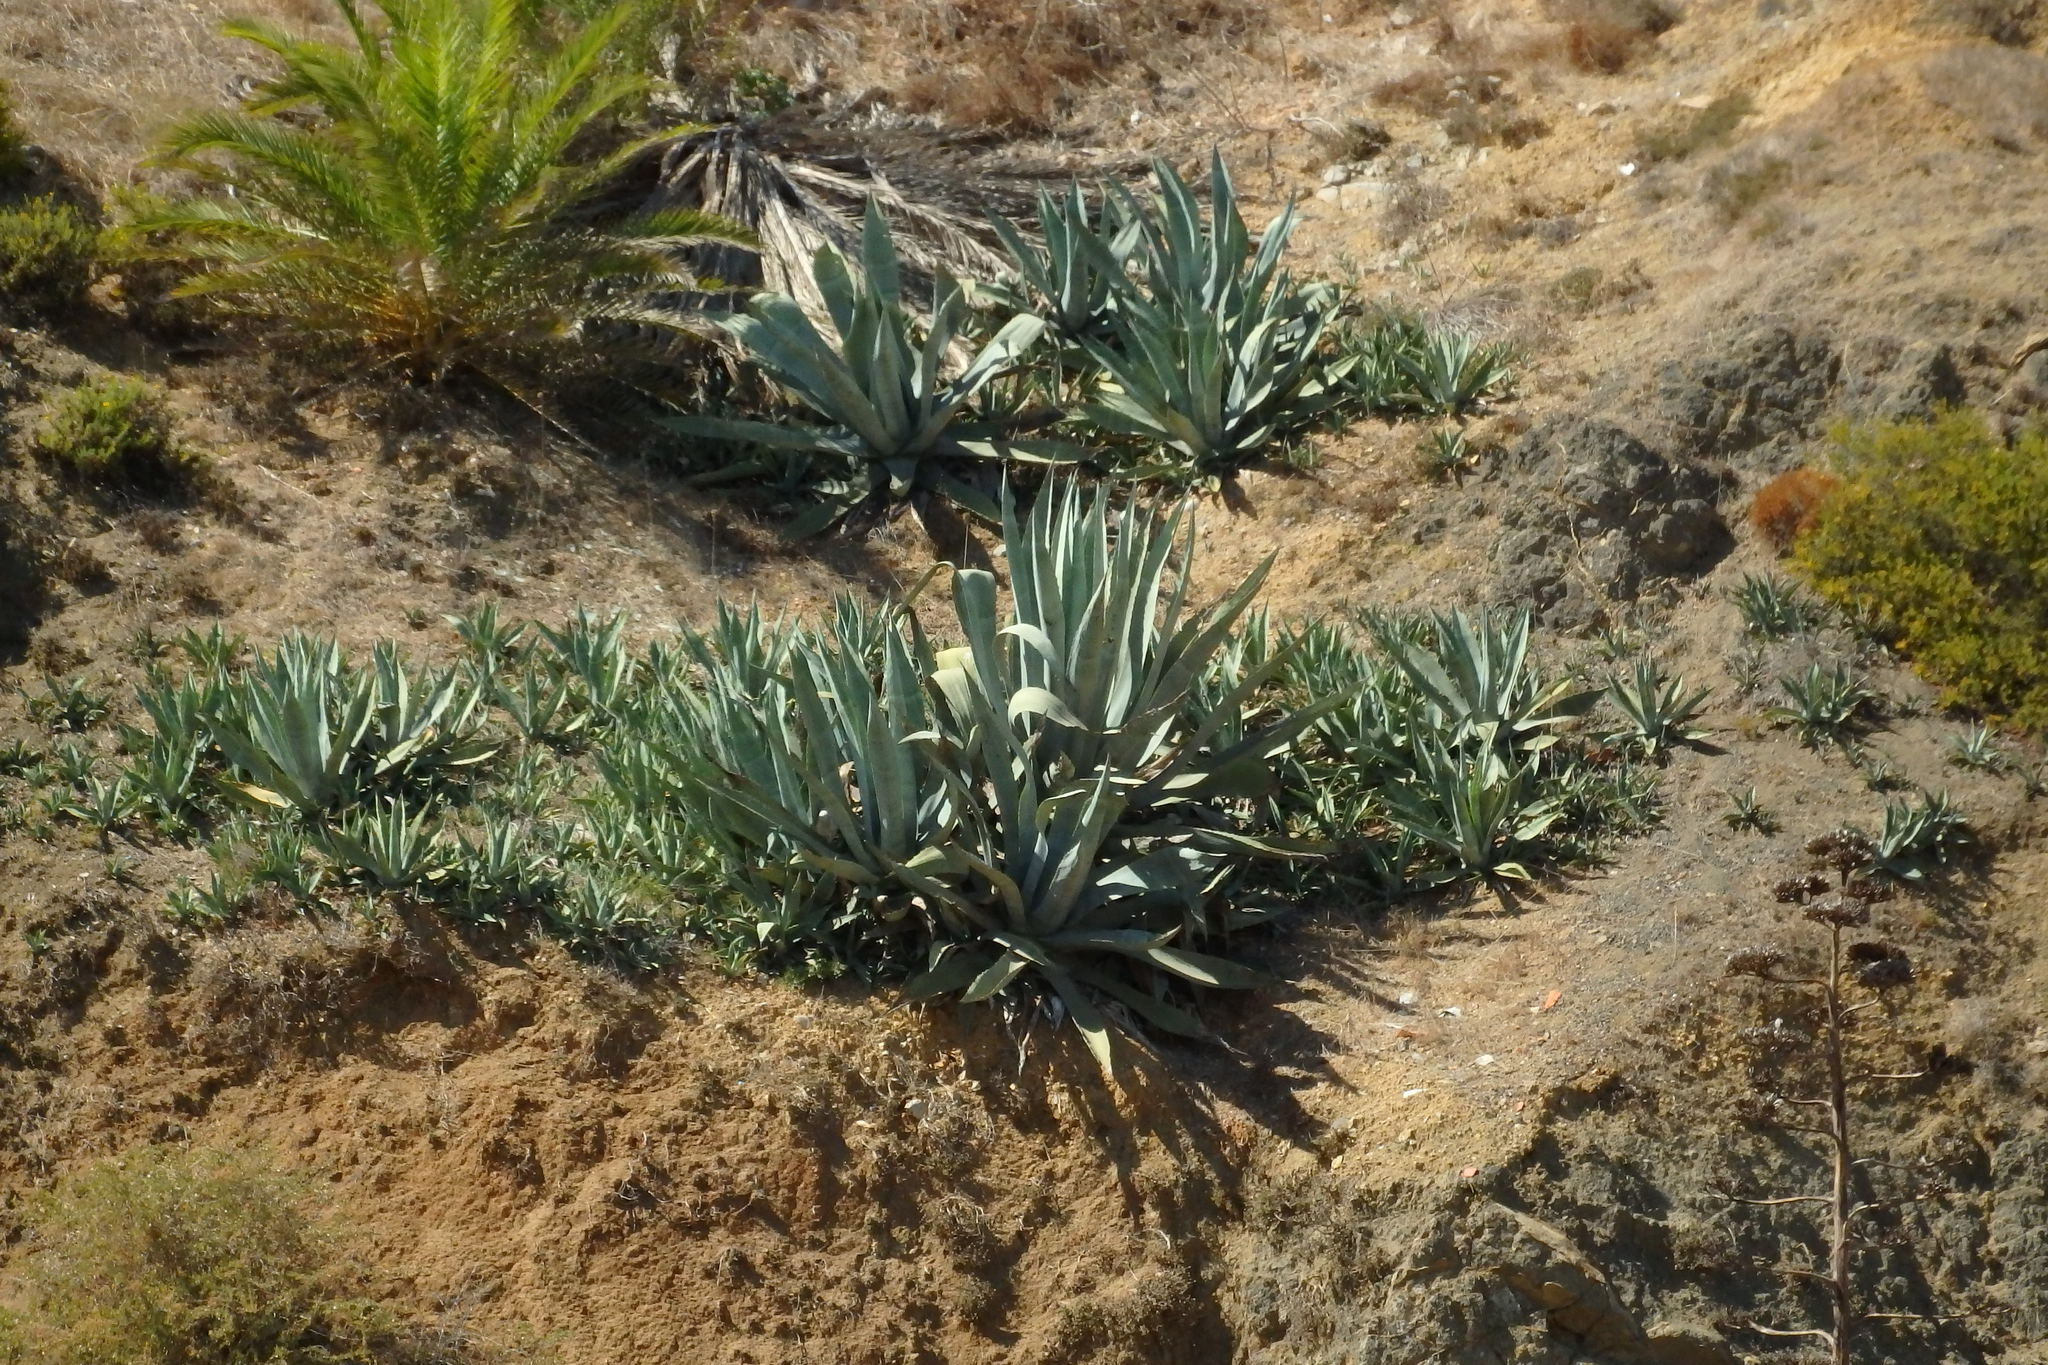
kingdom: Plantae
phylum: Tracheophyta
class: Liliopsida
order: Asparagales
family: Asparagaceae
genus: Agave
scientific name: Agave americana
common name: Centuryplant
